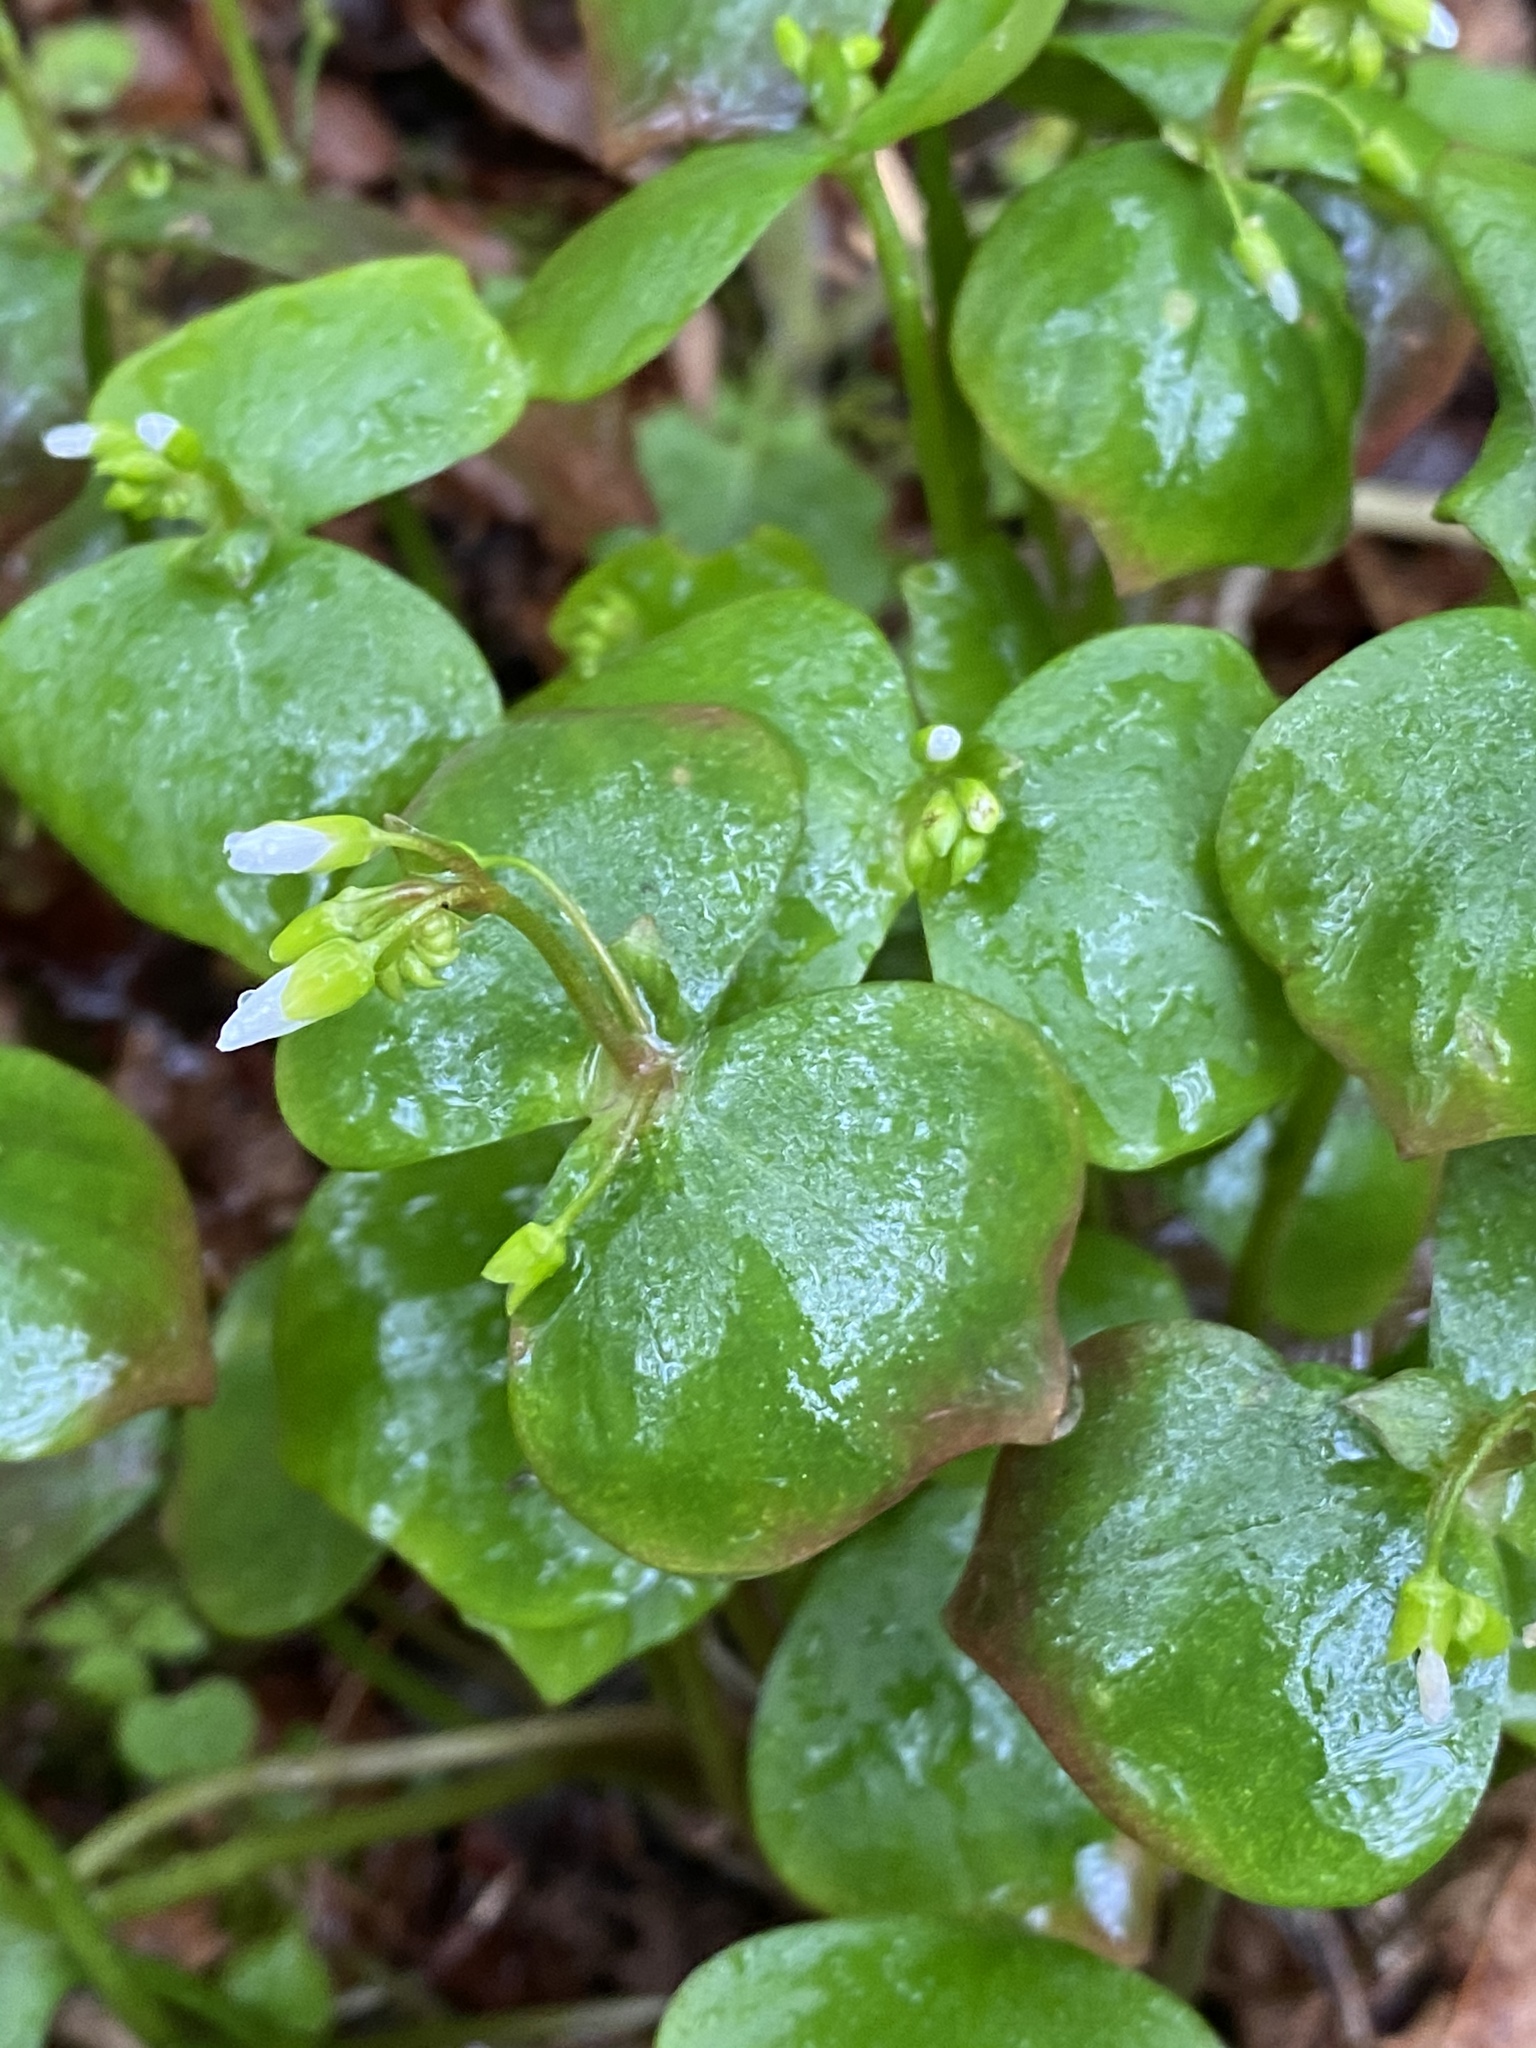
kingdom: Plantae
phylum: Tracheophyta
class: Magnoliopsida
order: Caryophyllales
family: Montiaceae
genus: Claytonia
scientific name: Claytonia sibirica
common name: Pink purslane
